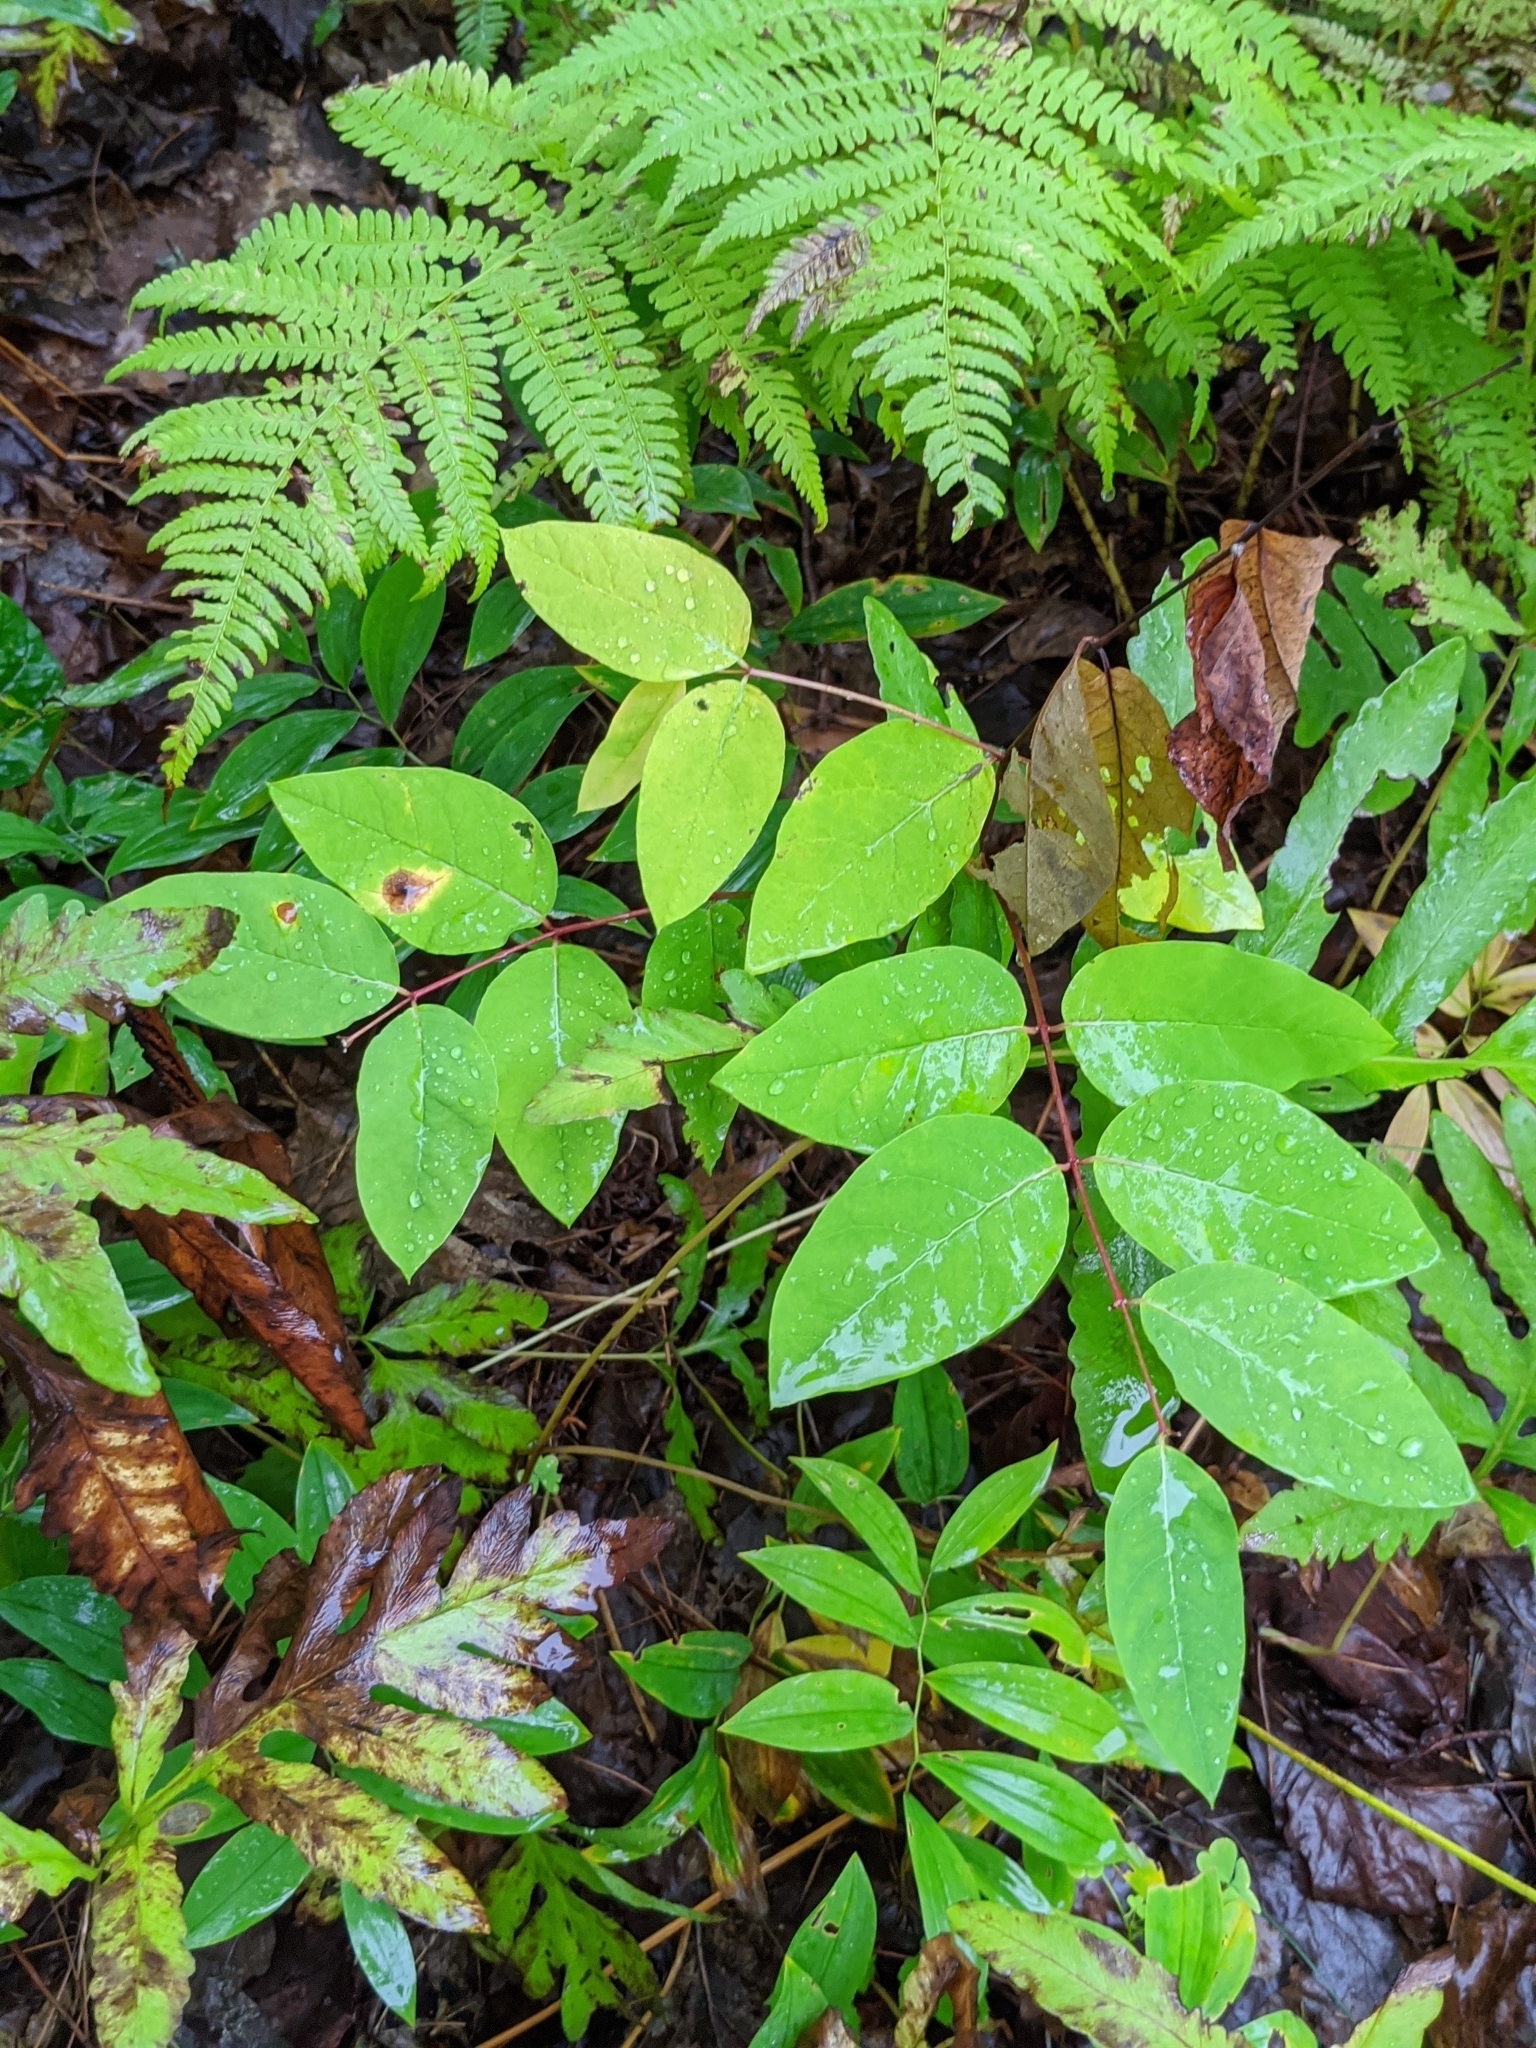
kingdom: Plantae
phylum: Tracheophyta
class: Magnoliopsida
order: Gentianales
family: Apocynaceae
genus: Apocynum
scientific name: Apocynum androsaemifolium
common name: Spreading dogbane
